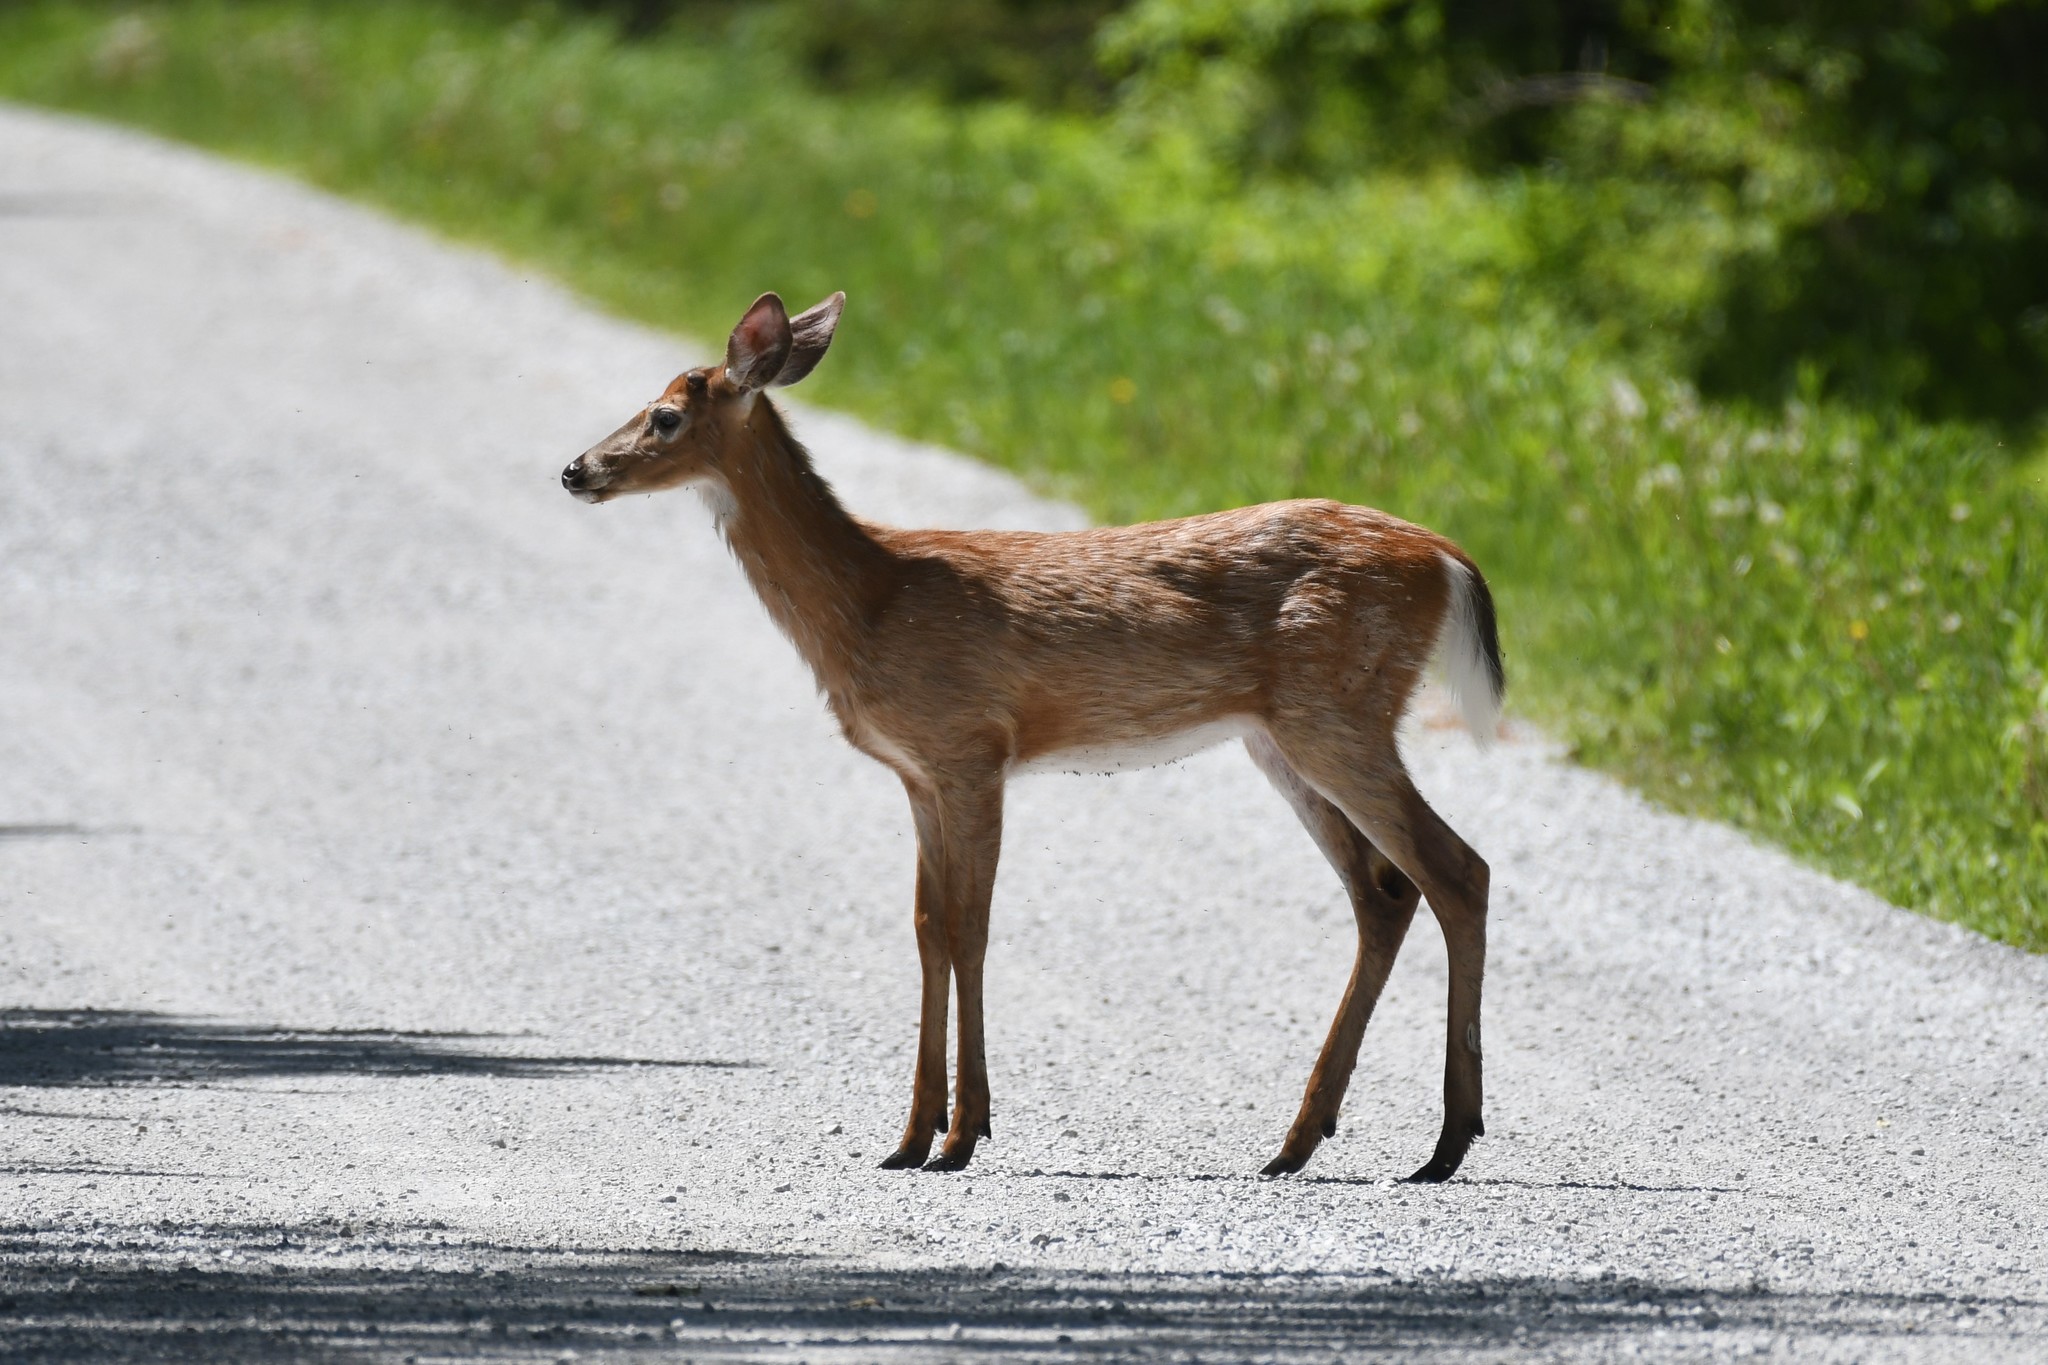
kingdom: Animalia
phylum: Chordata
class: Mammalia
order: Artiodactyla
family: Cervidae
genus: Odocoileus
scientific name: Odocoileus virginianus
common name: White-tailed deer
